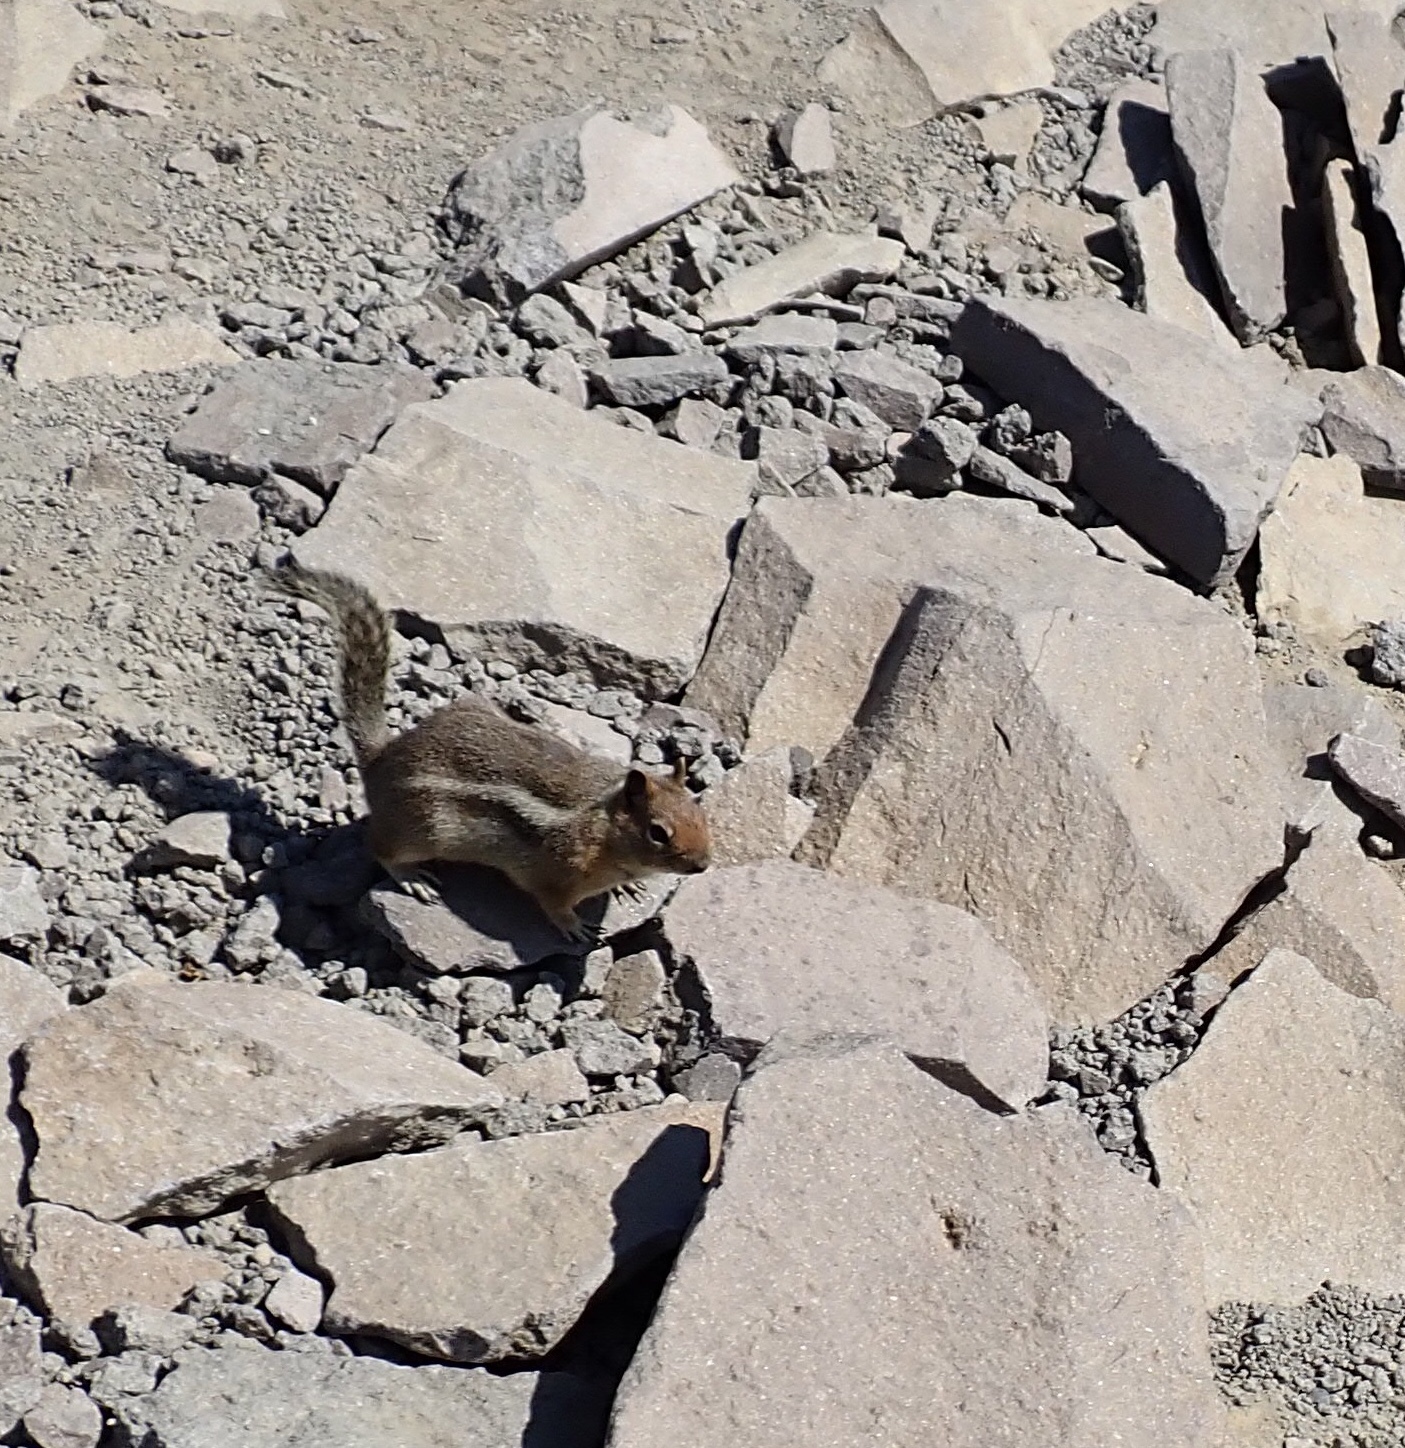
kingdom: Animalia
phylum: Chordata
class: Mammalia
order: Rodentia
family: Sciuridae
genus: Callospermophilus
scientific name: Callospermophilus saturatus
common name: Cascade golden-mantled ground squirrel
